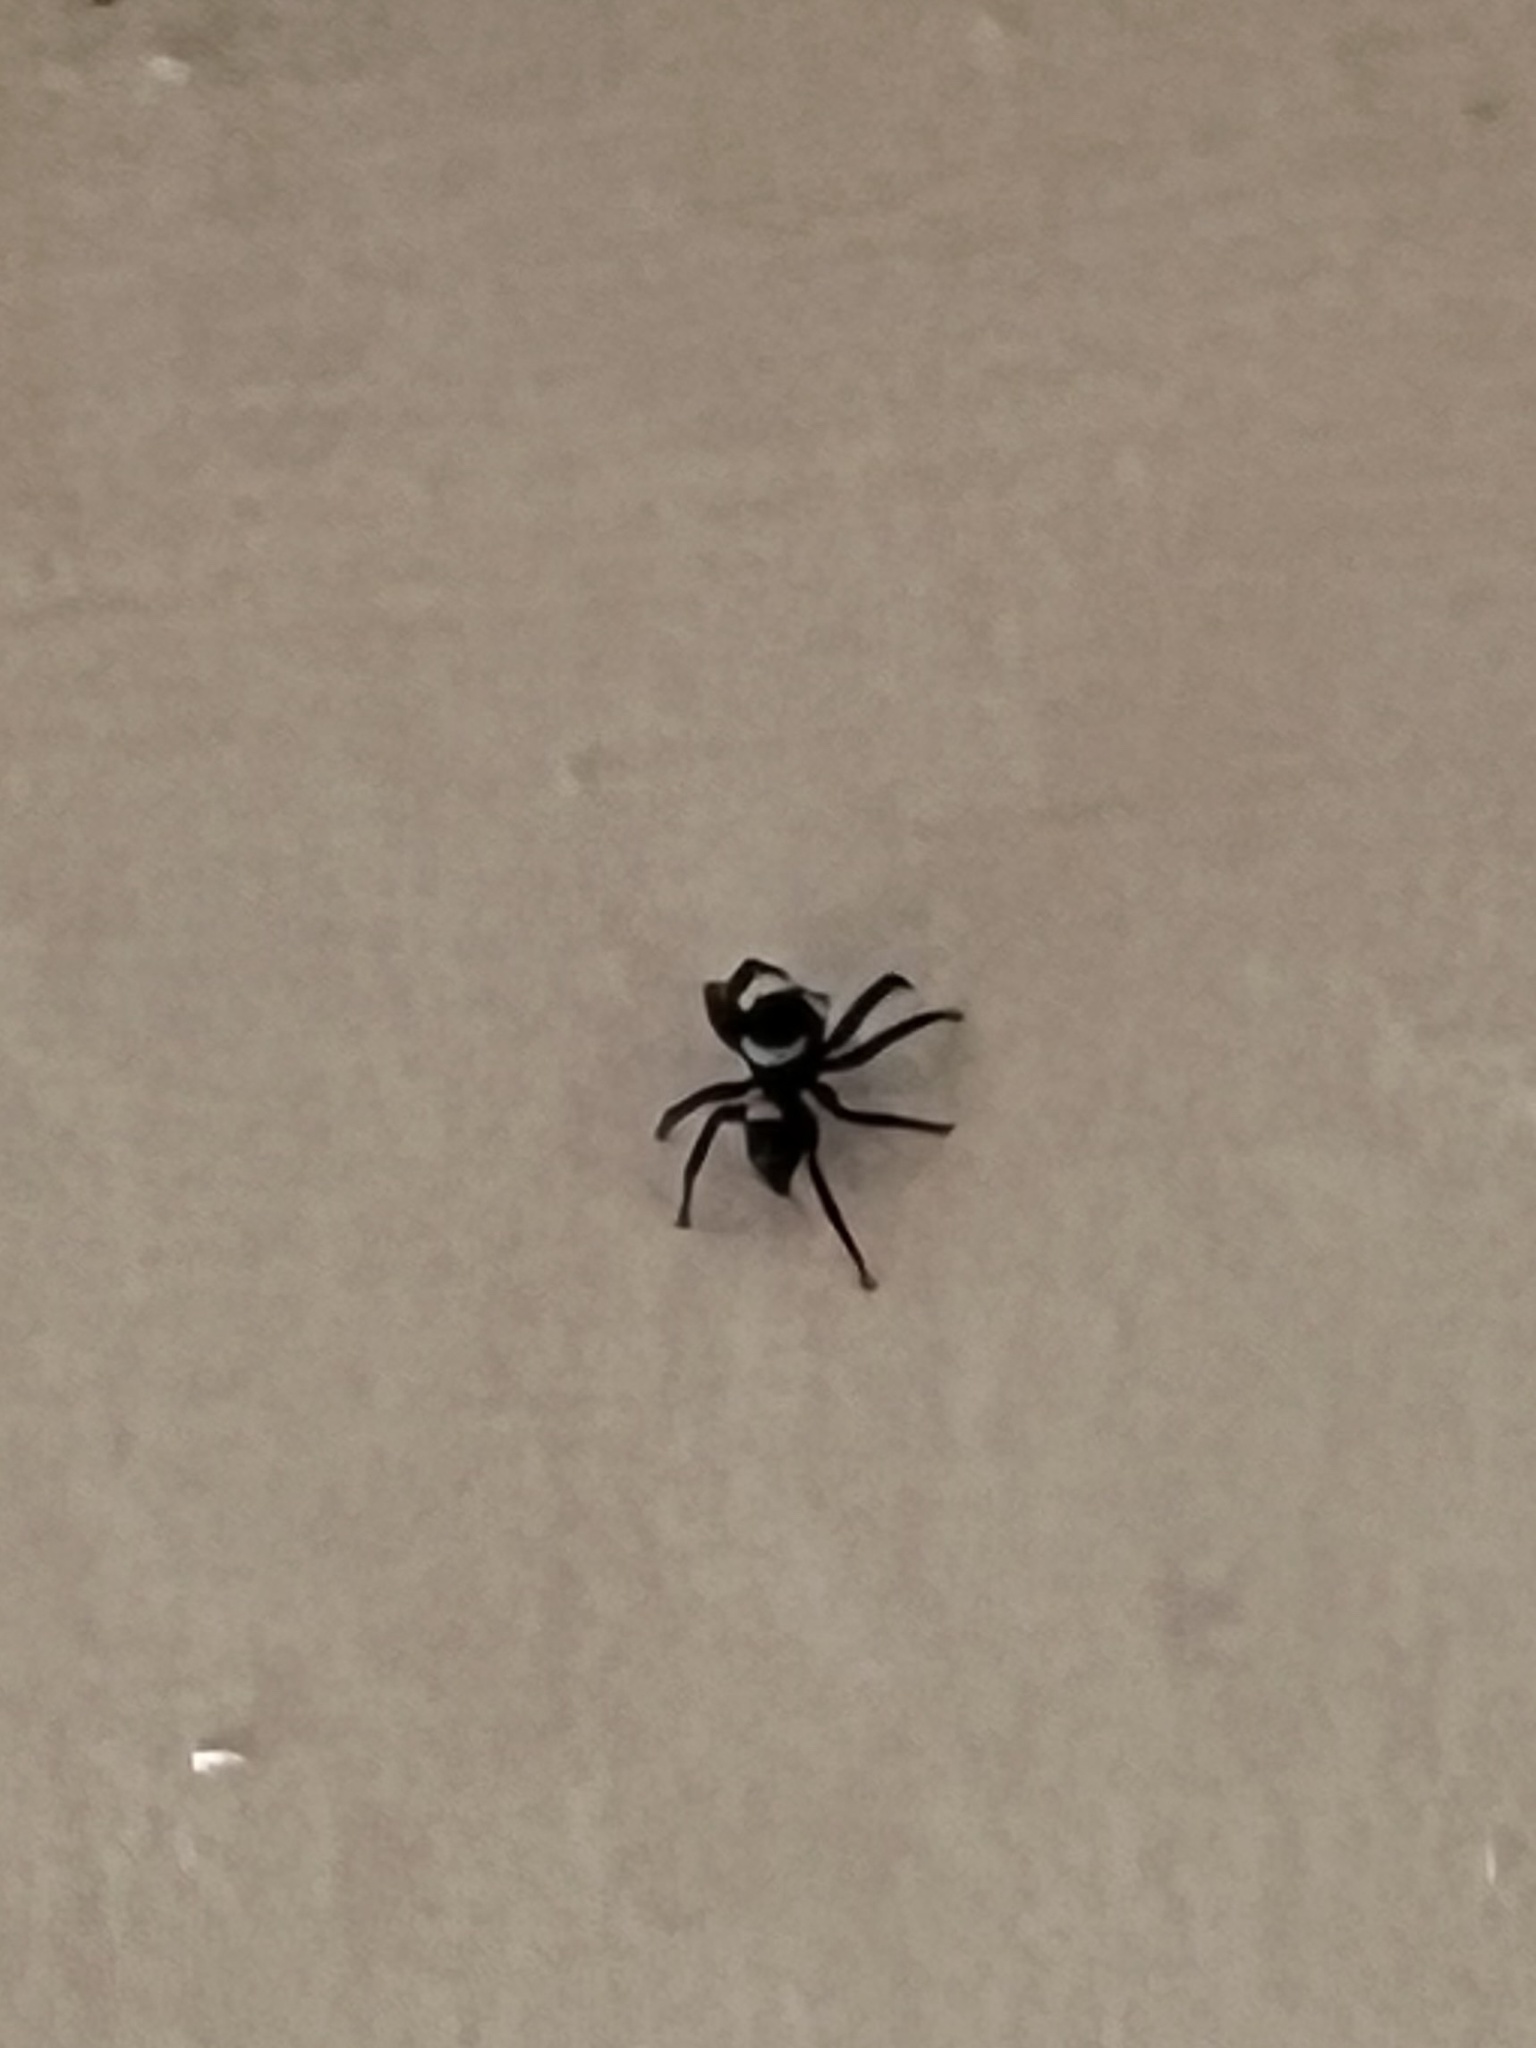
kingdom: Animalia
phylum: Arthropoda
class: Arachnida
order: Araneae
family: Salticidae
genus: Hasarius
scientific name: Hasarius adansoni
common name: Jumping spider
